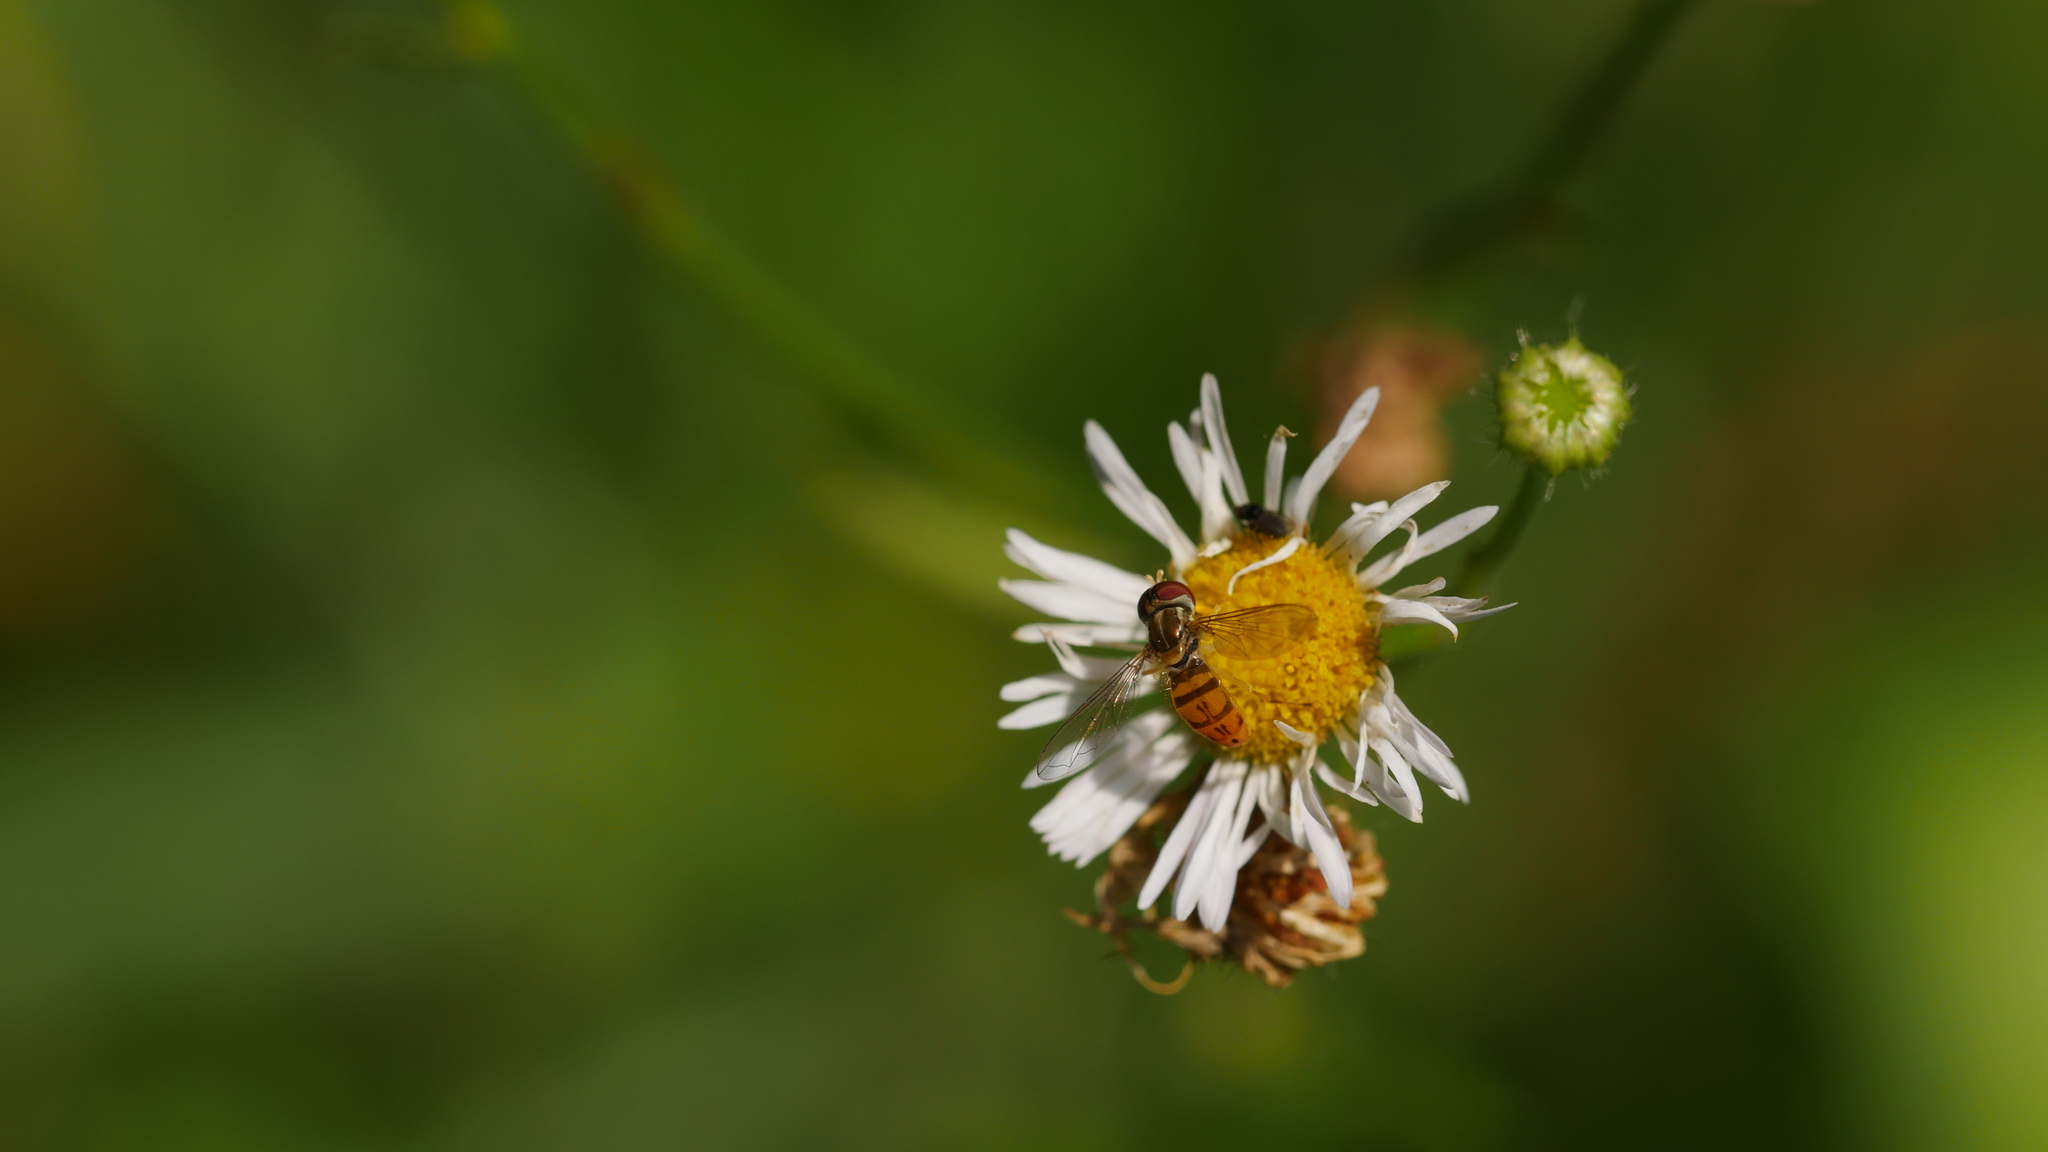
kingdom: Animalia
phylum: Arthropoda
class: Insecta
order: Diptera
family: Syrphidae
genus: Toxomerus
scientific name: Toxomerus marginatus
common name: Syrphid fly
